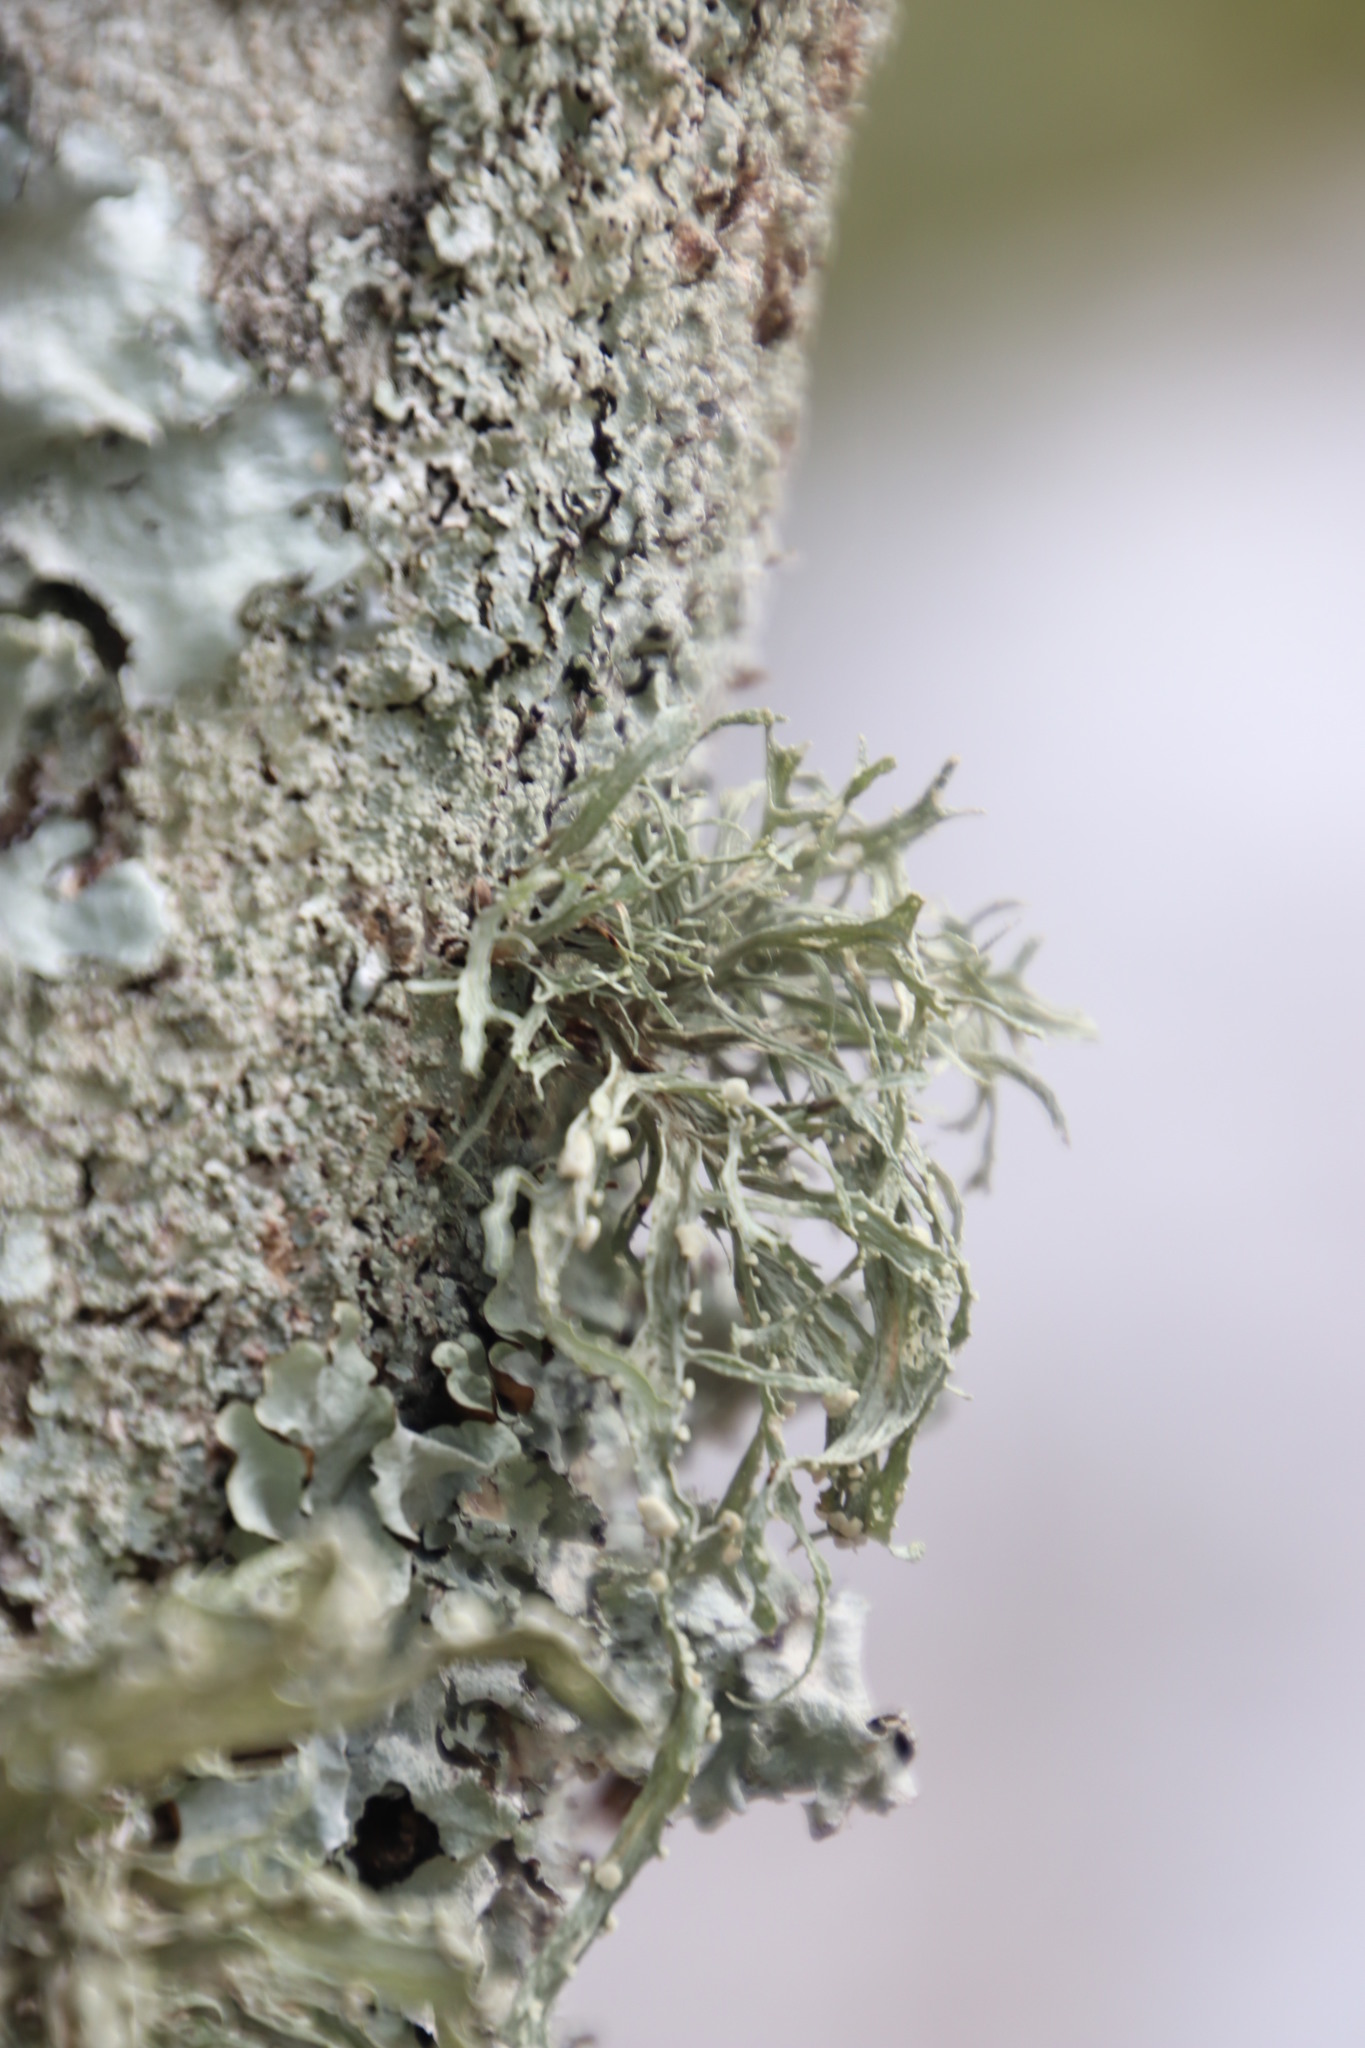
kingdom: Fungi
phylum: Ascomycota
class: Lecanoromycetes
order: Lecanorales
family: Ramalinaceae
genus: Ramalina
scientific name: Ramalina celastri
